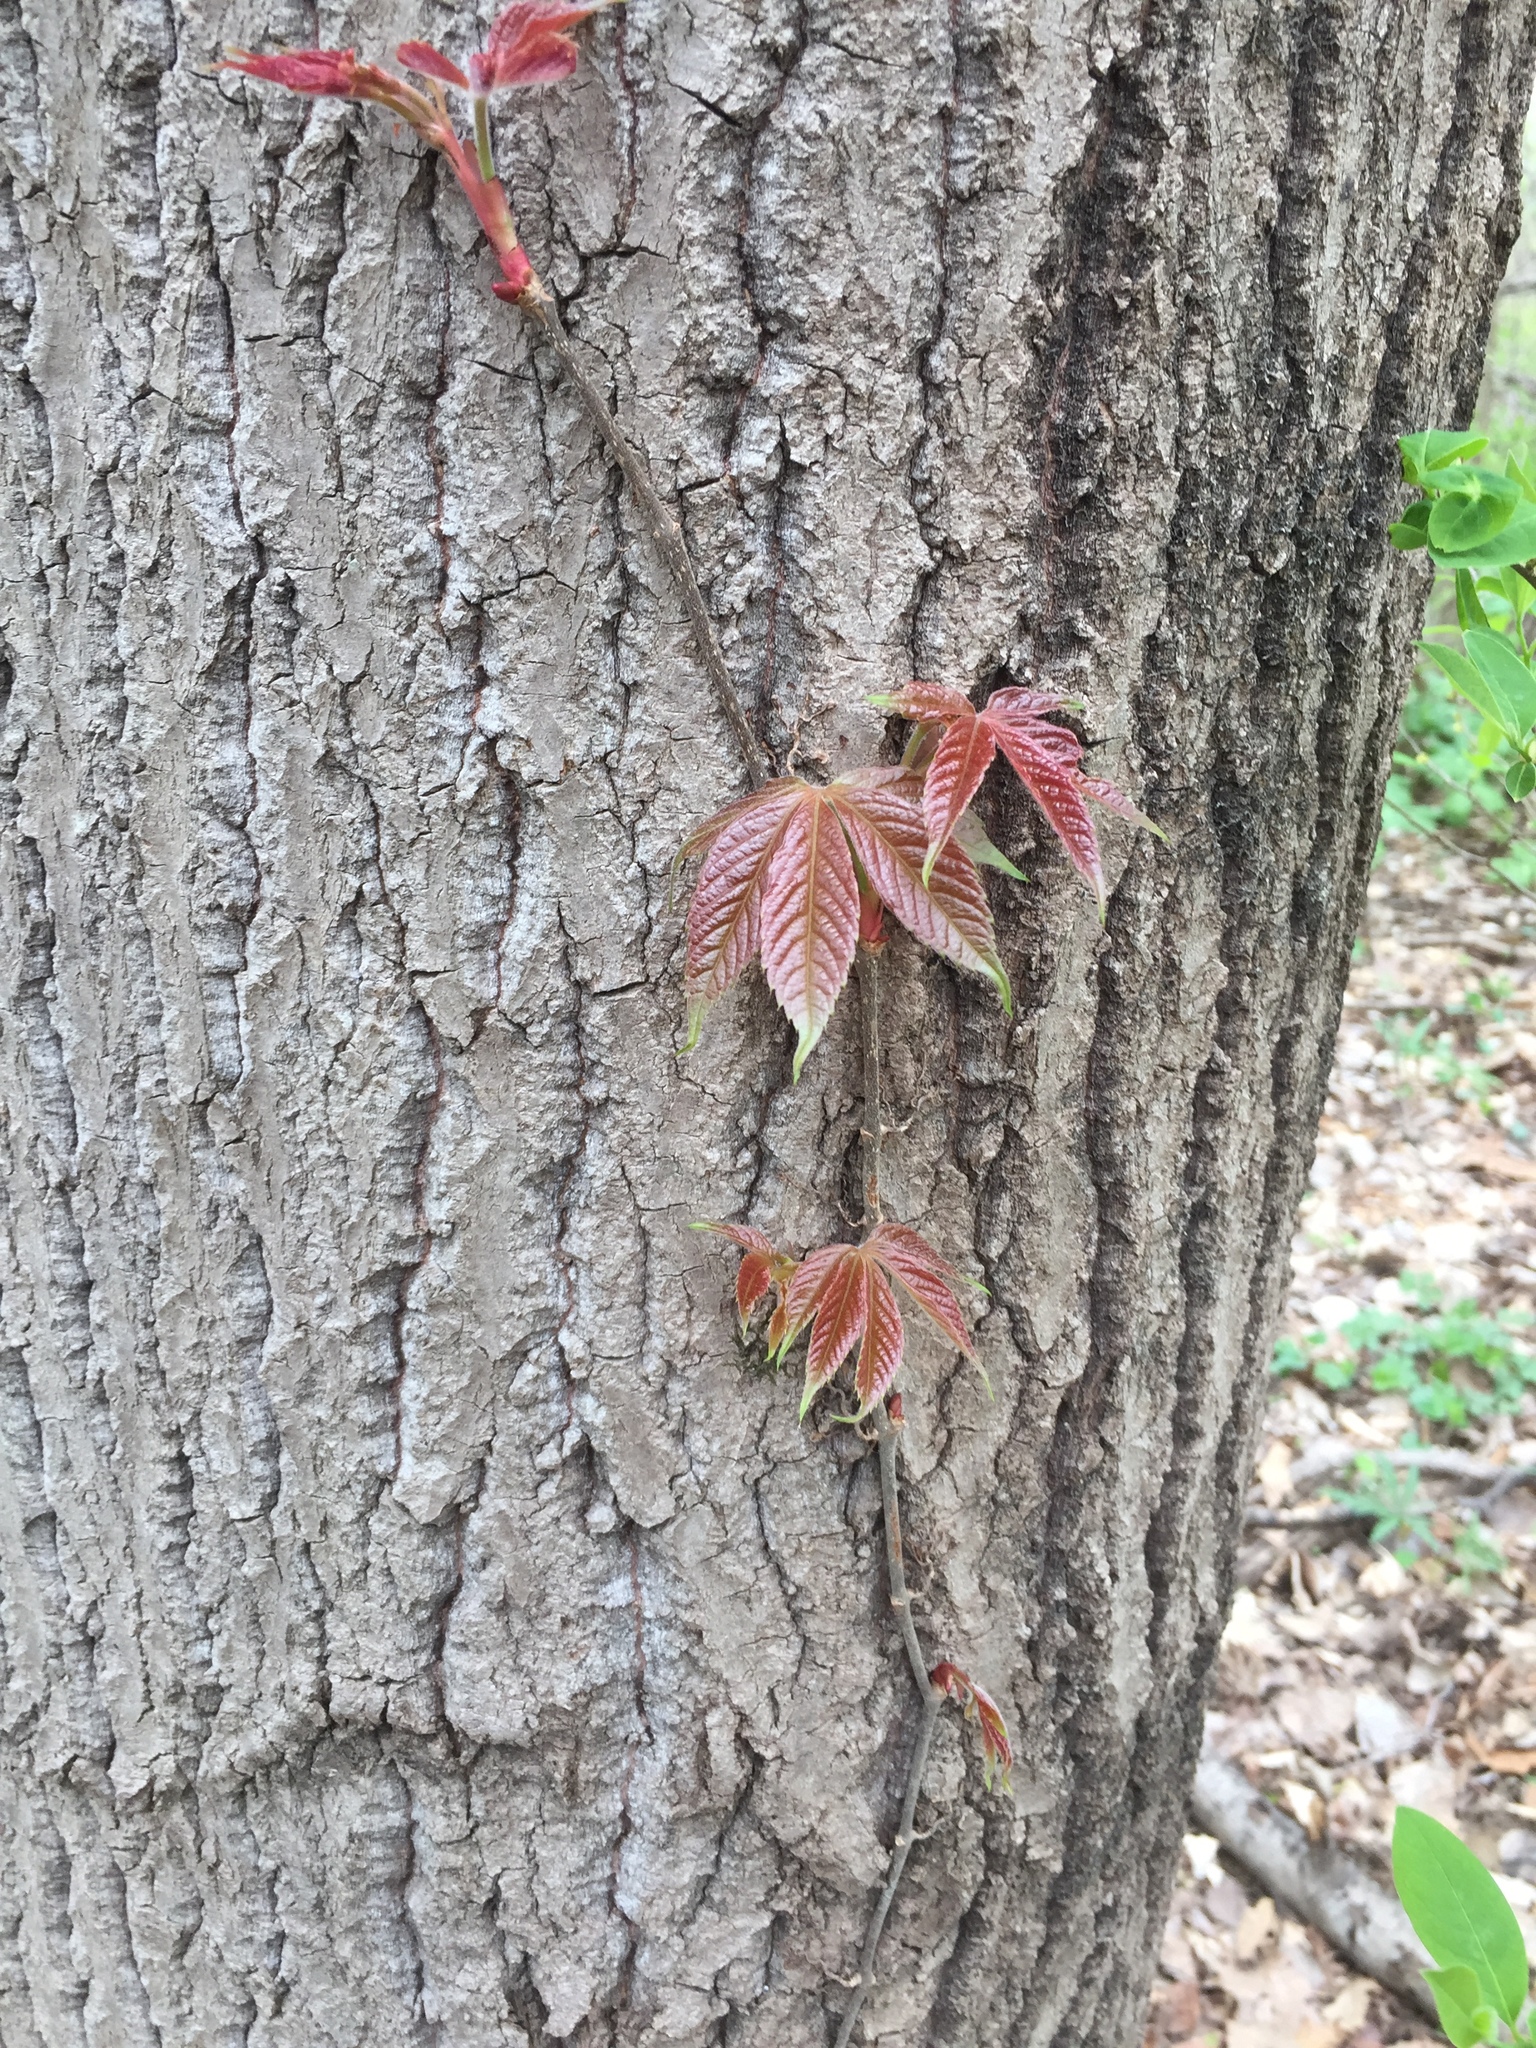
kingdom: Plantae
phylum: Tracheophyta
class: Magnoliopsida
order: Vitales
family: Vitaceae
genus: Parthenocissus
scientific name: Parthenocissus quinquefolia
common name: Virginia-creeper
